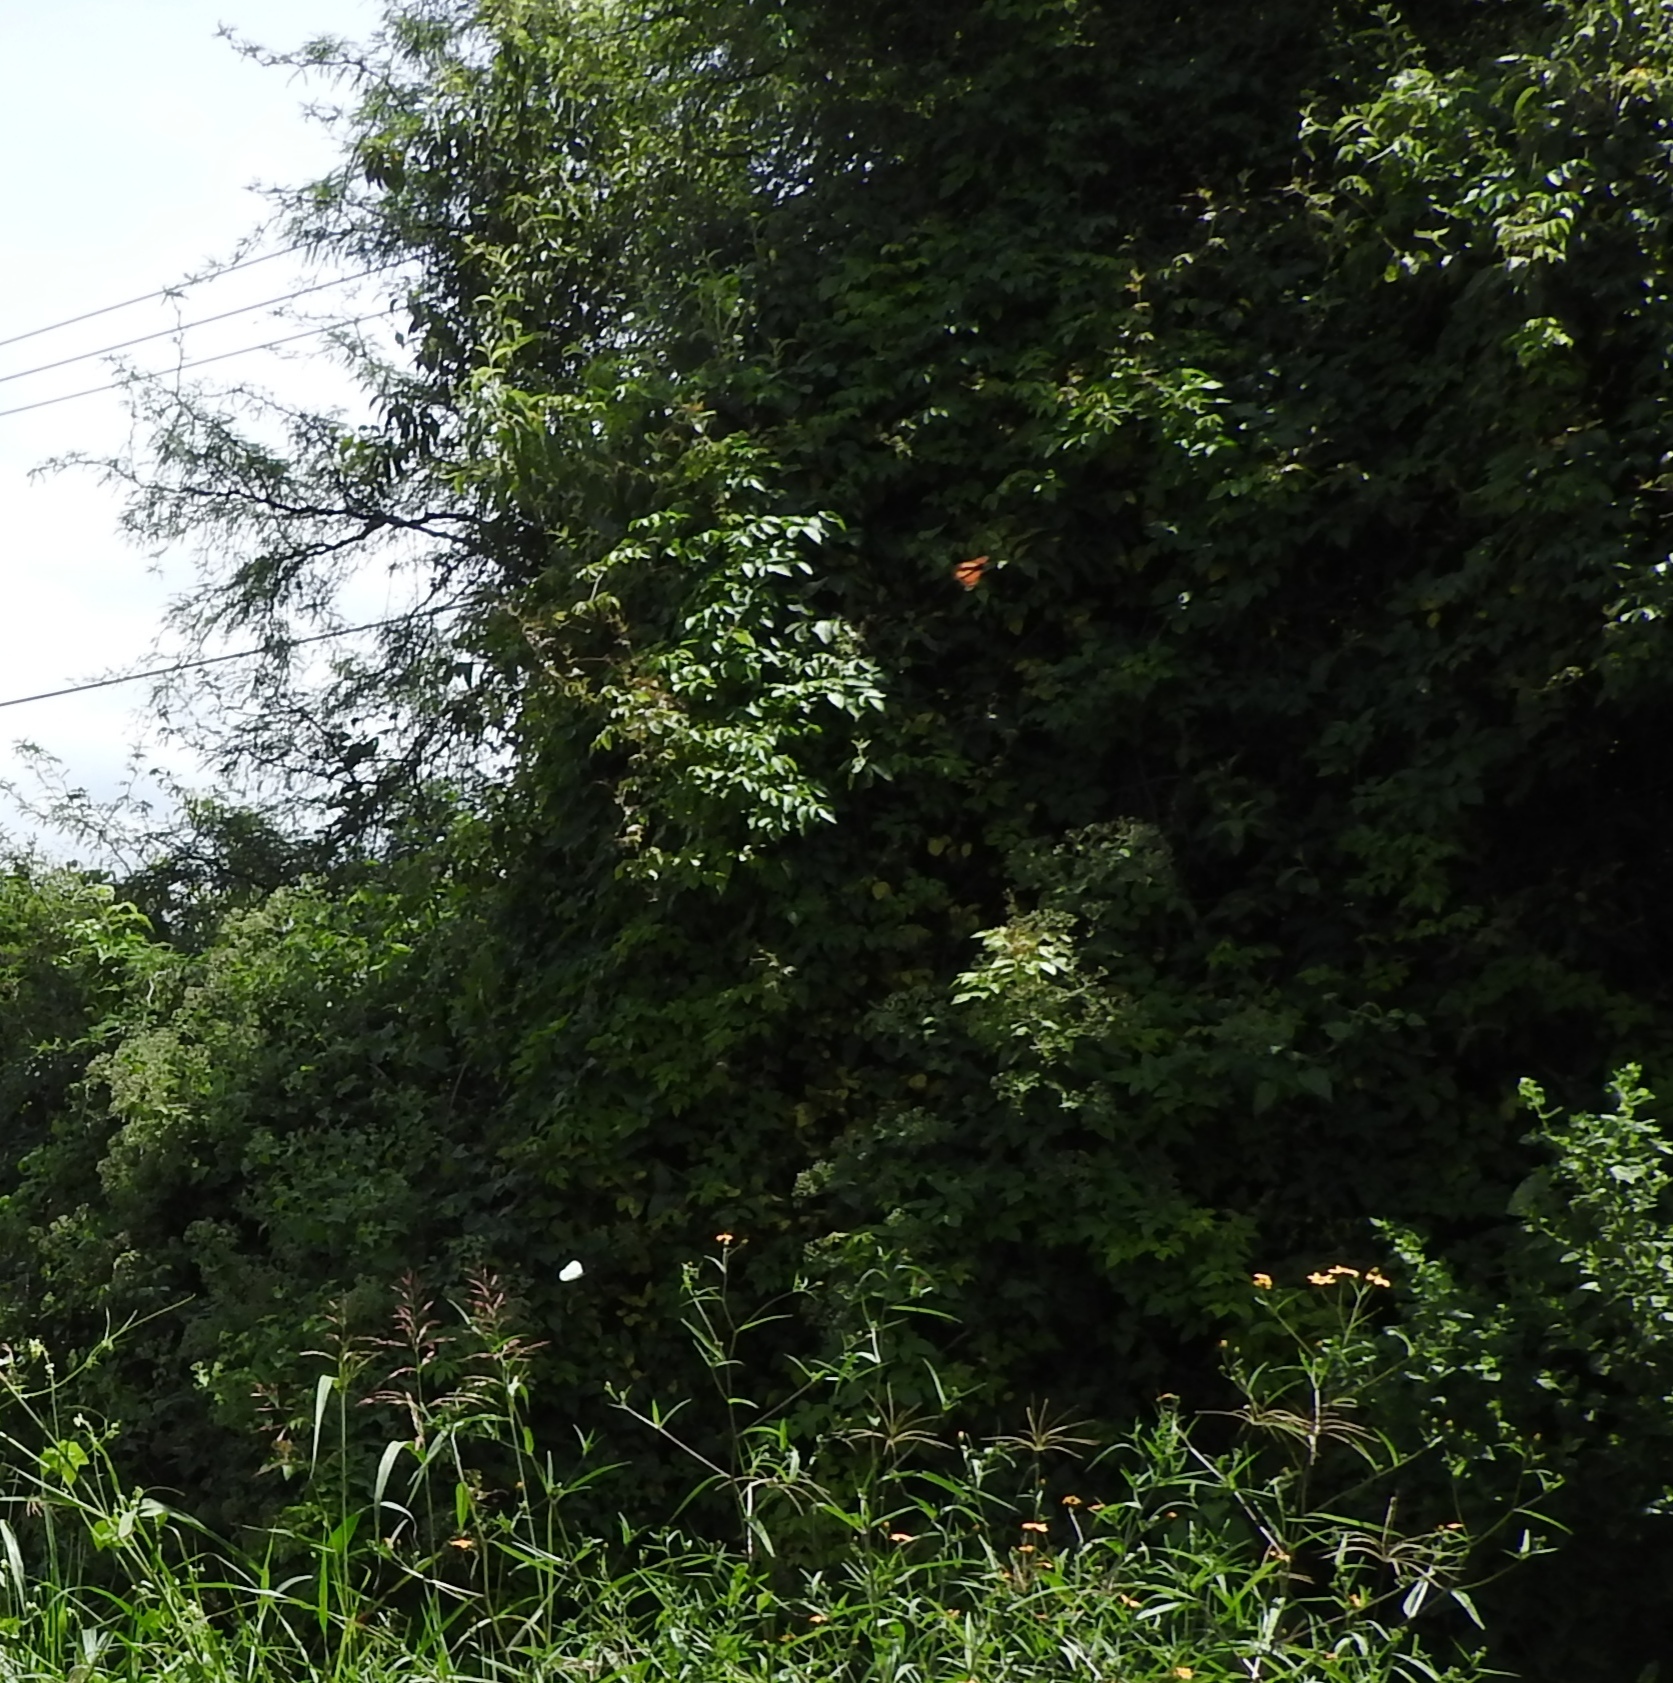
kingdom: Animalia
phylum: Arthropoda
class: Insecta
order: Lepidoptera
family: Nymphalidae
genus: Danaus
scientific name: Danaus plexippus
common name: Monarch
